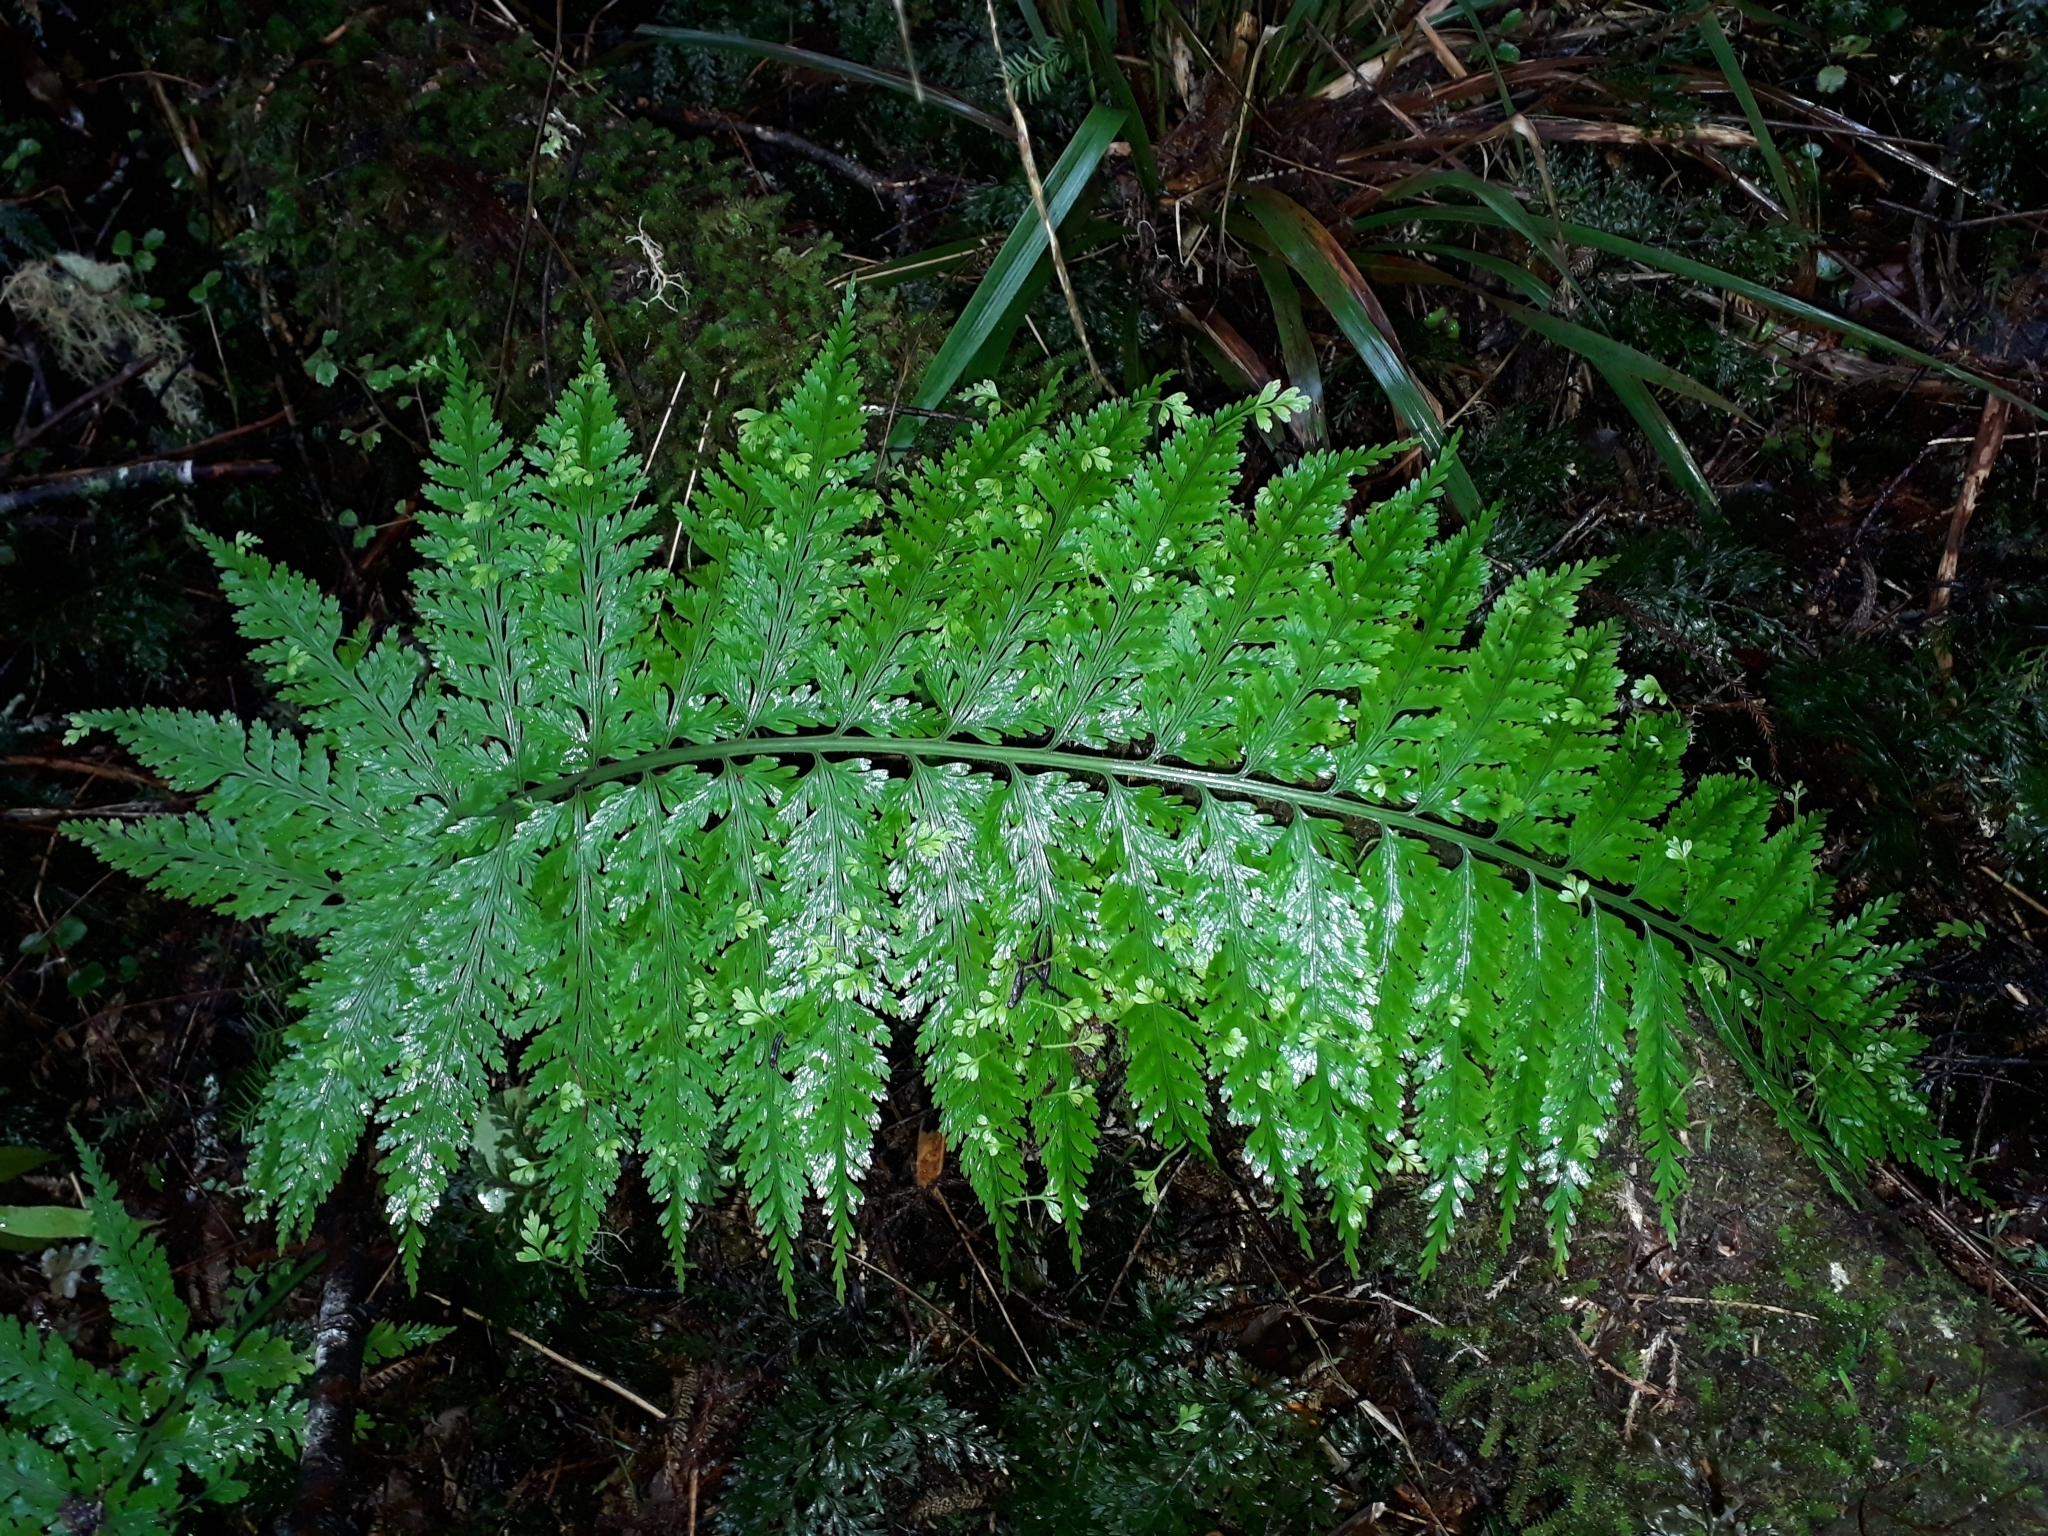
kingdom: Plantae
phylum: Tracheophyta
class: Polypodiopsida
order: Polypodiales
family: Aspleniaceae
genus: Asplenium
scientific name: Asplenium bulbiferum
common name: Mother fern
